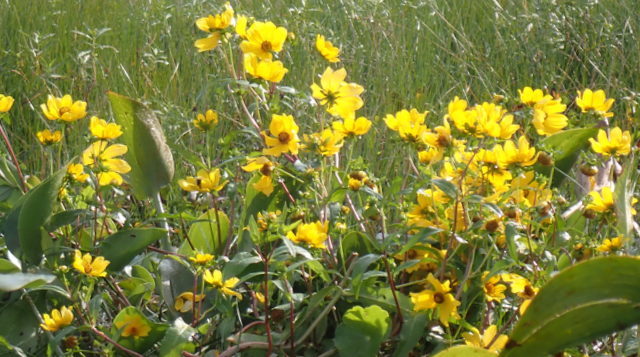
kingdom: Plantae
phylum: Tracheophyta
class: Magnoliopsida
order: Asterales
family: Asteraceae
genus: Bidens
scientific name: Bidens laevis
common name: Larger bur-marigold
